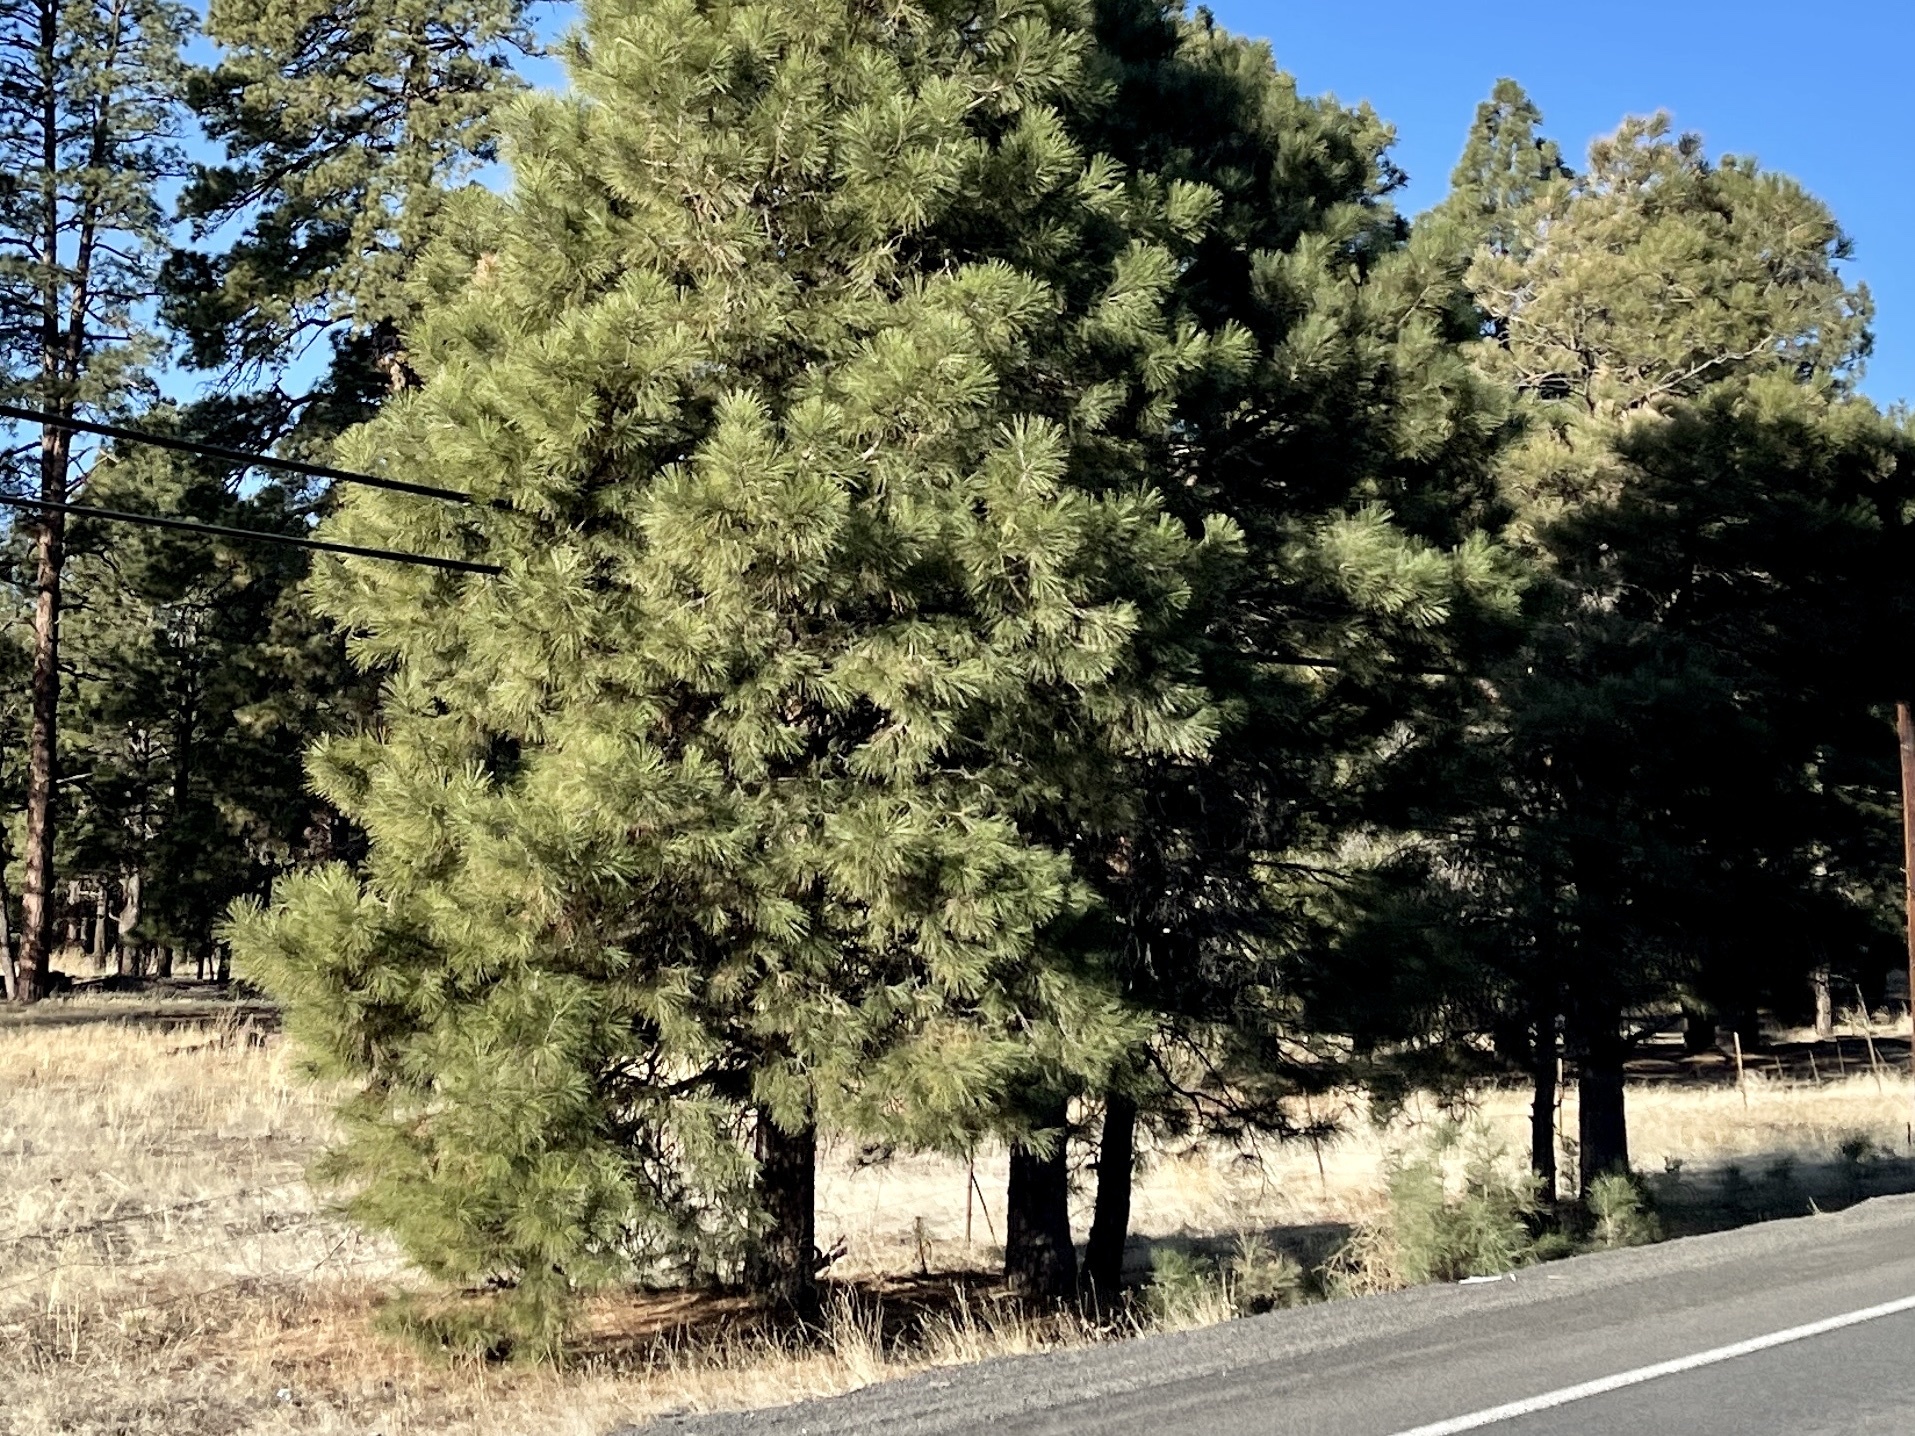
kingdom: Plantae
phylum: Tracheophyta
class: Pinopsida
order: Pinales
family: Pinaceae
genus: Pinus
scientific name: Pinus ponderosa
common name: Western yellow-pine
